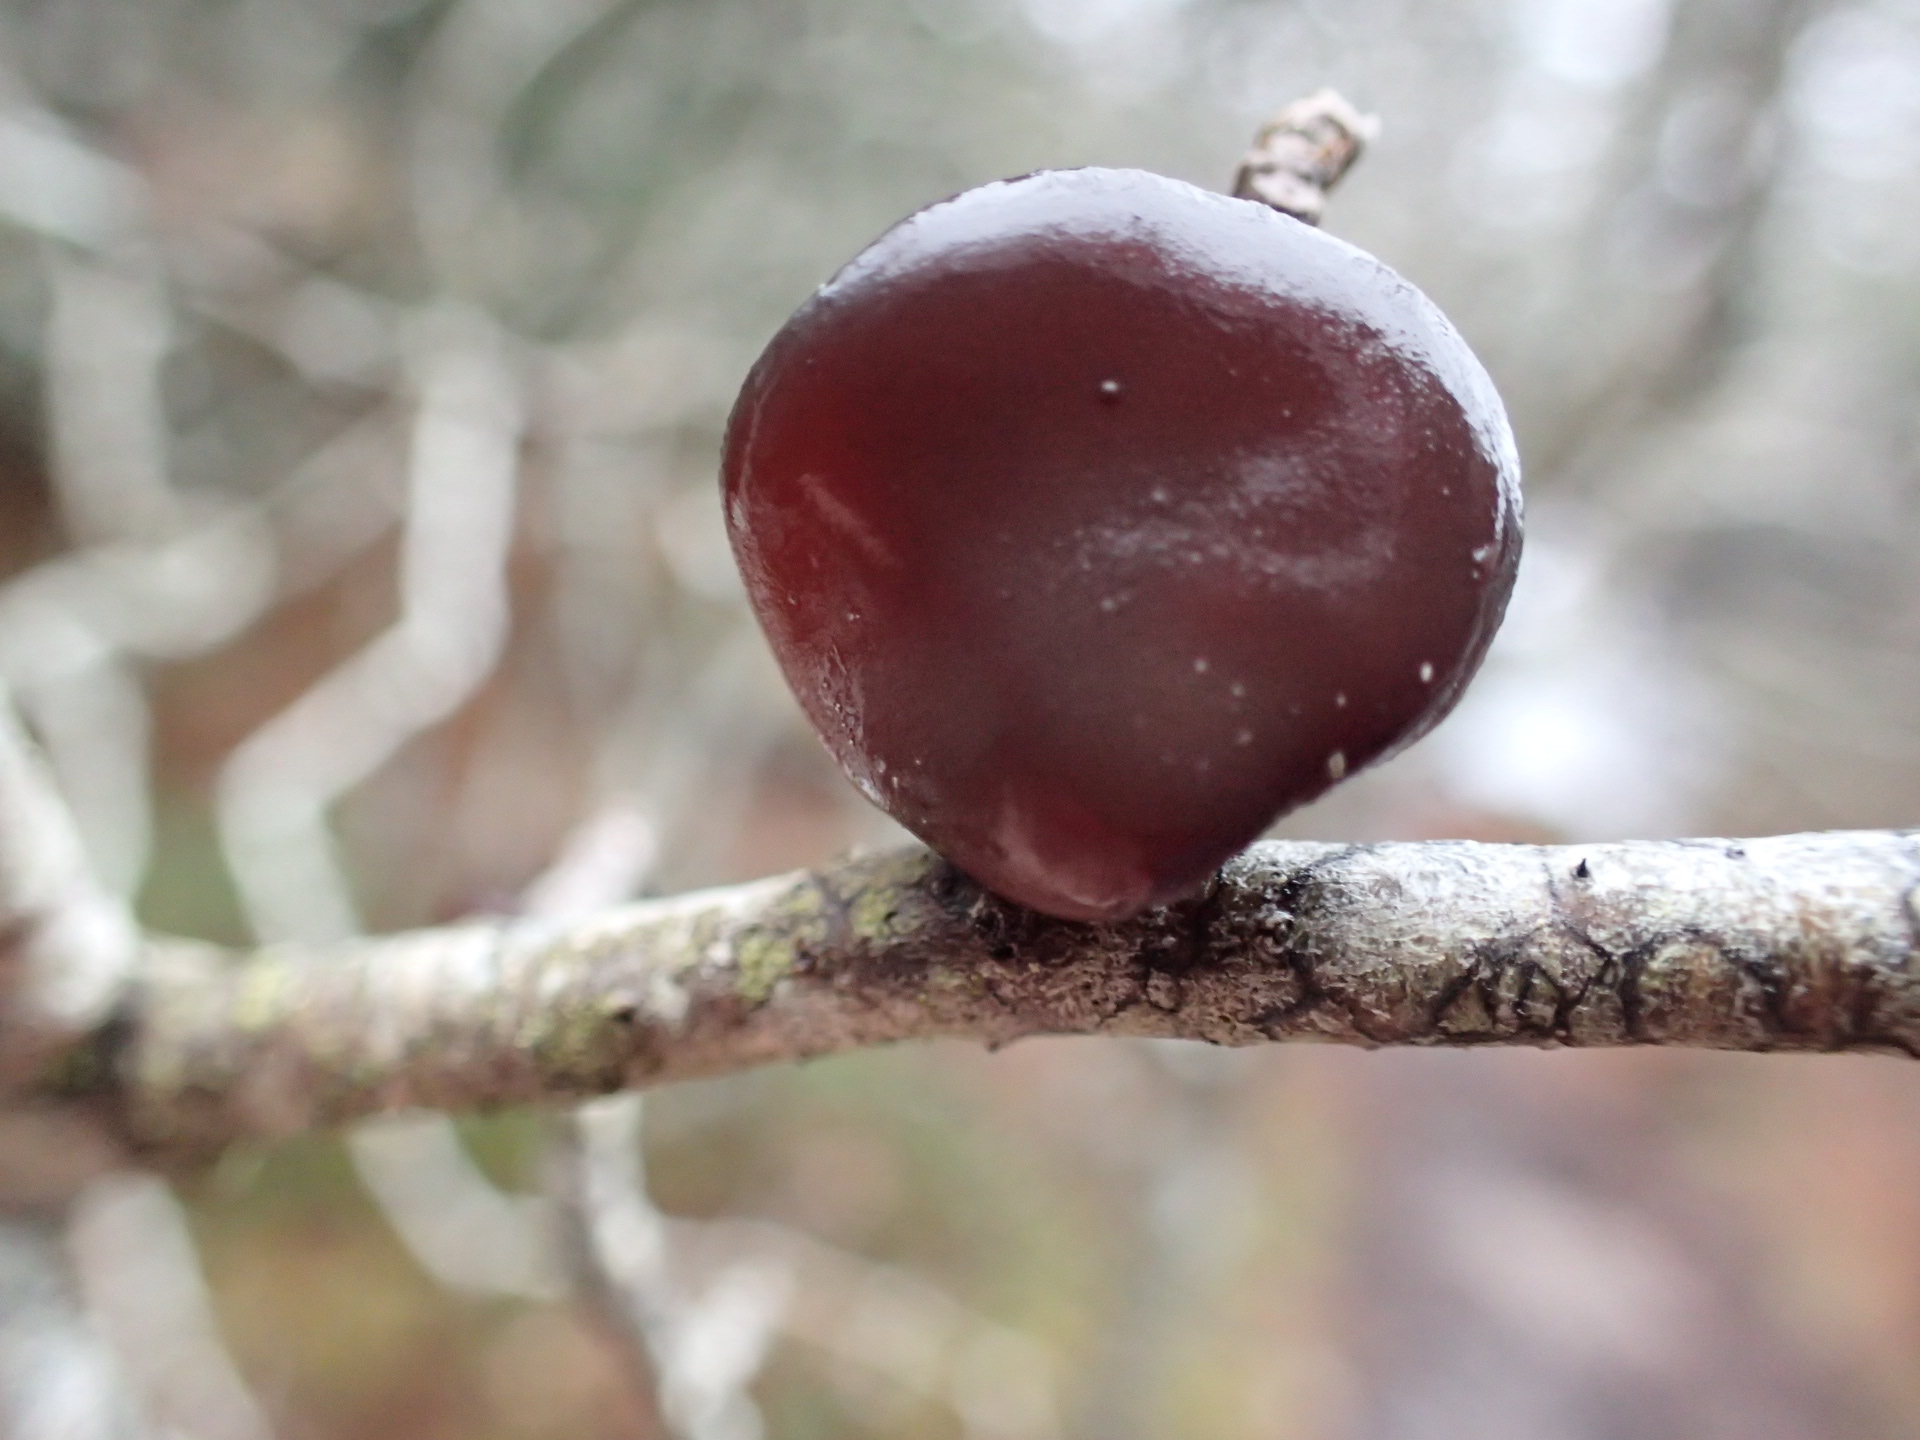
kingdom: Fungi
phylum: Basidiomycota
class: Agaricomycetes
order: Auriculariales
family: Auriculariaceae
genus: Exidia
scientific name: Exidia recisa
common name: Amber jelly
